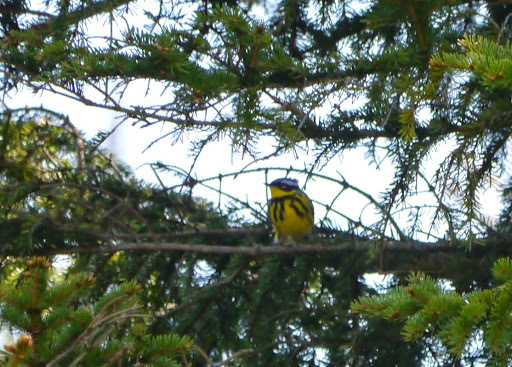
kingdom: Animalia
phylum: Chordata
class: Aves
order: Passeriformes
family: Parulidae
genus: Setophaga
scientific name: Setophaga magnolia
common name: Magnolia warbler
